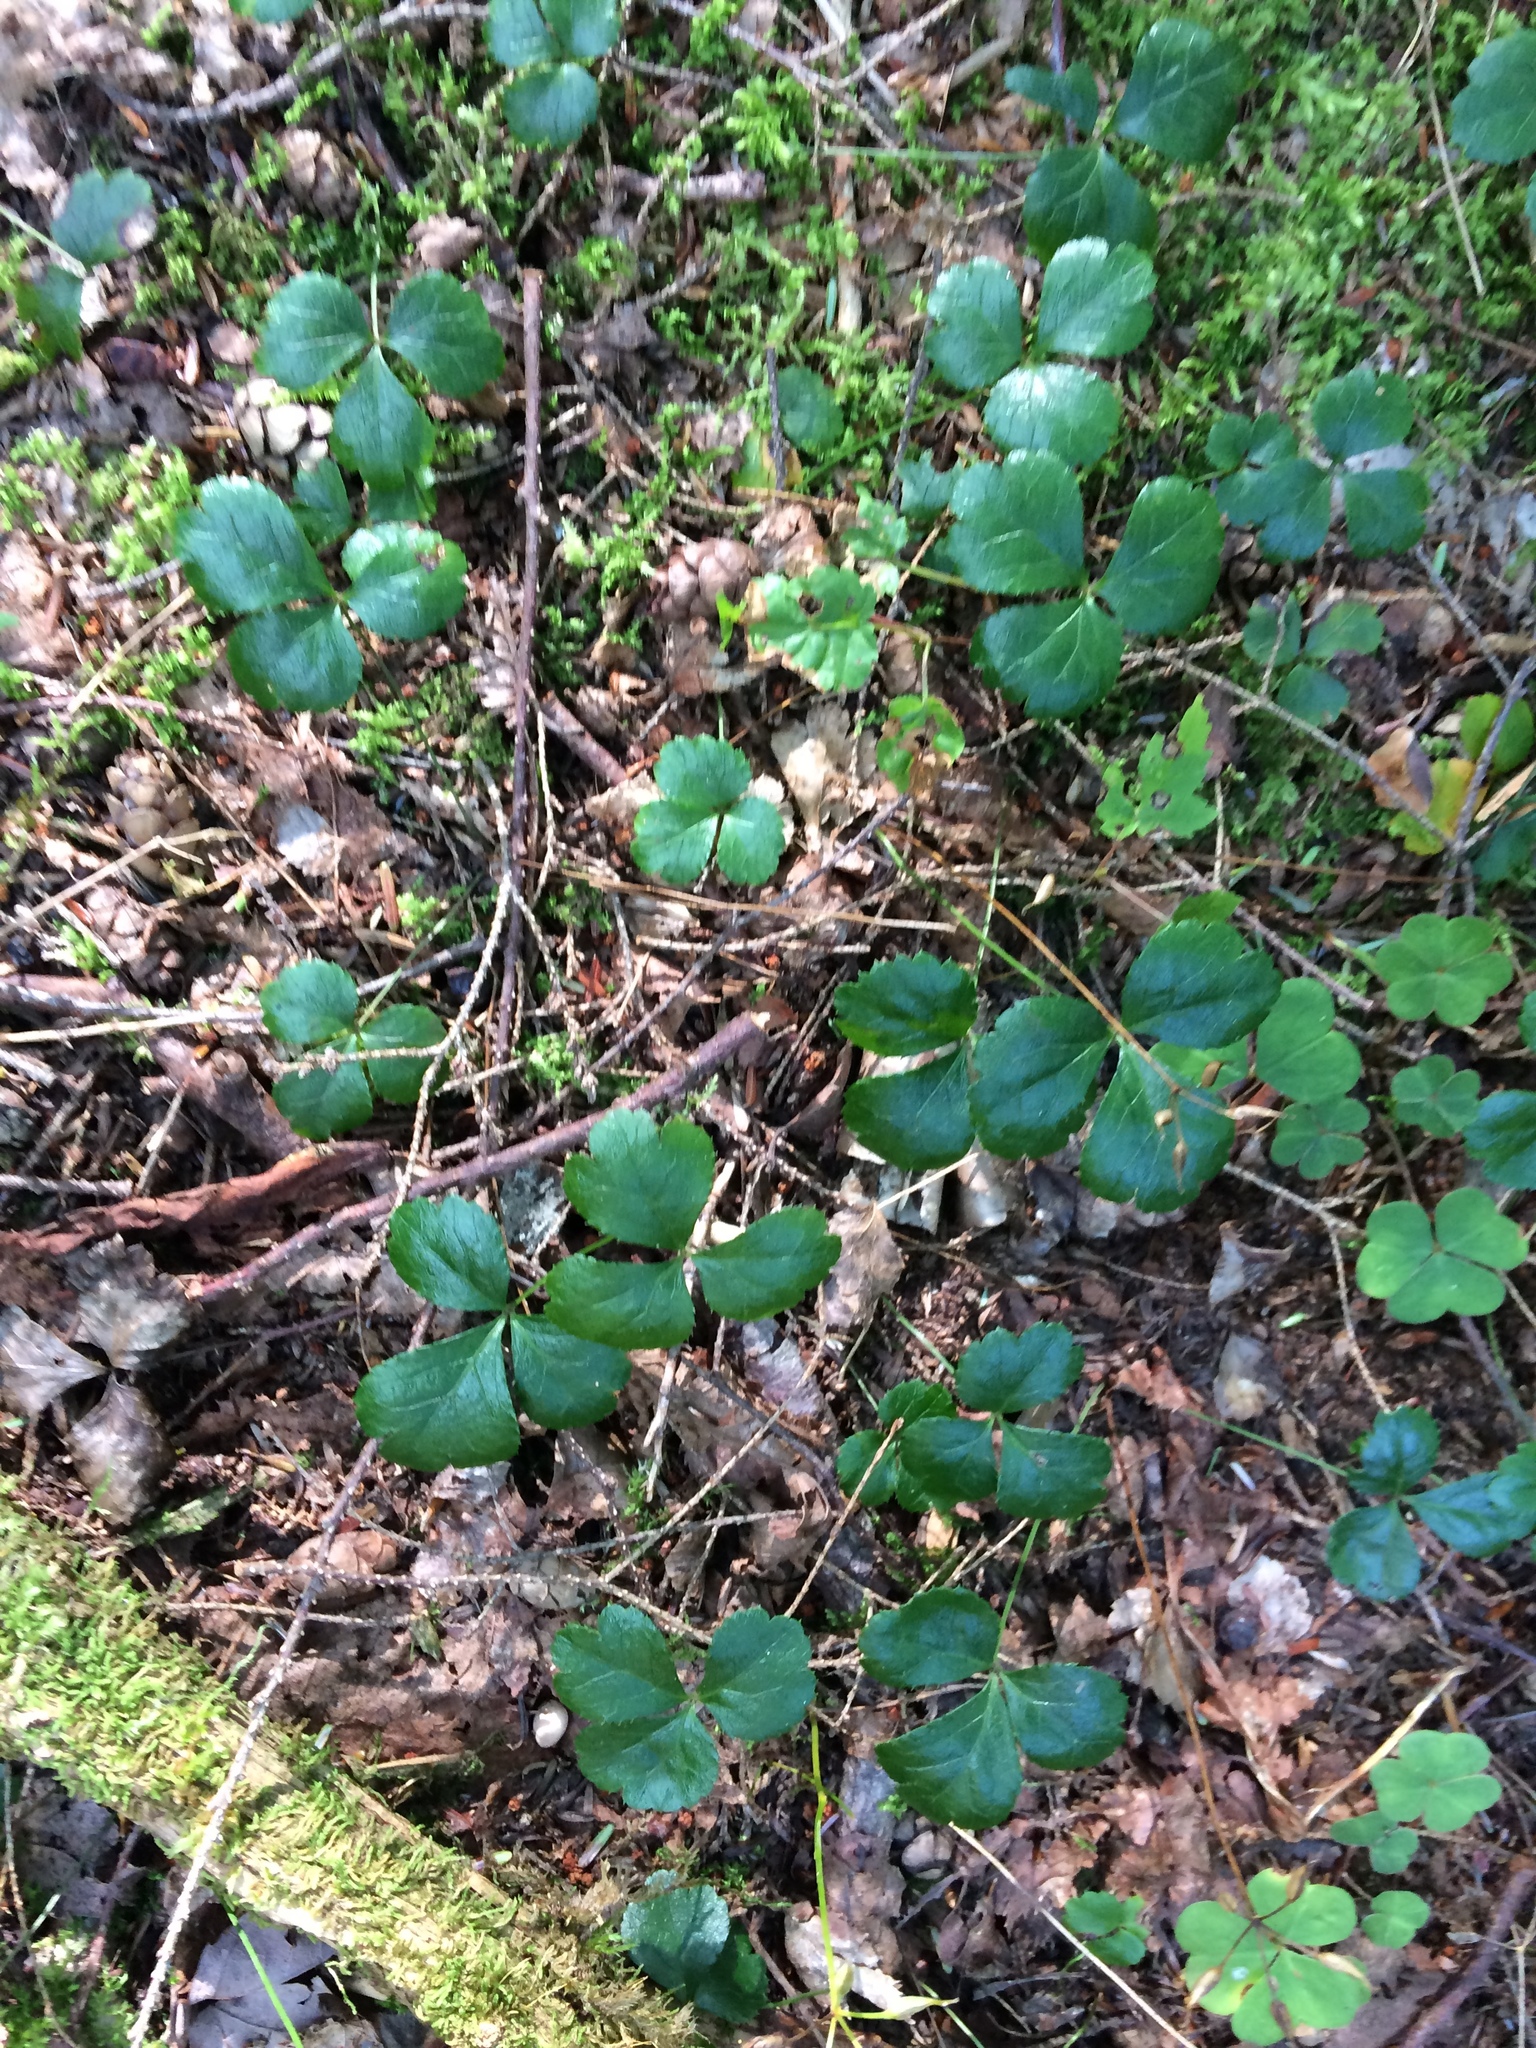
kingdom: Plantae
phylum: Tracheophyta
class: Magnoliopsida
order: Ranunculales
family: Ranunculaceae
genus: Coptis
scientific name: Coptis trifolia
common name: Canker-root
